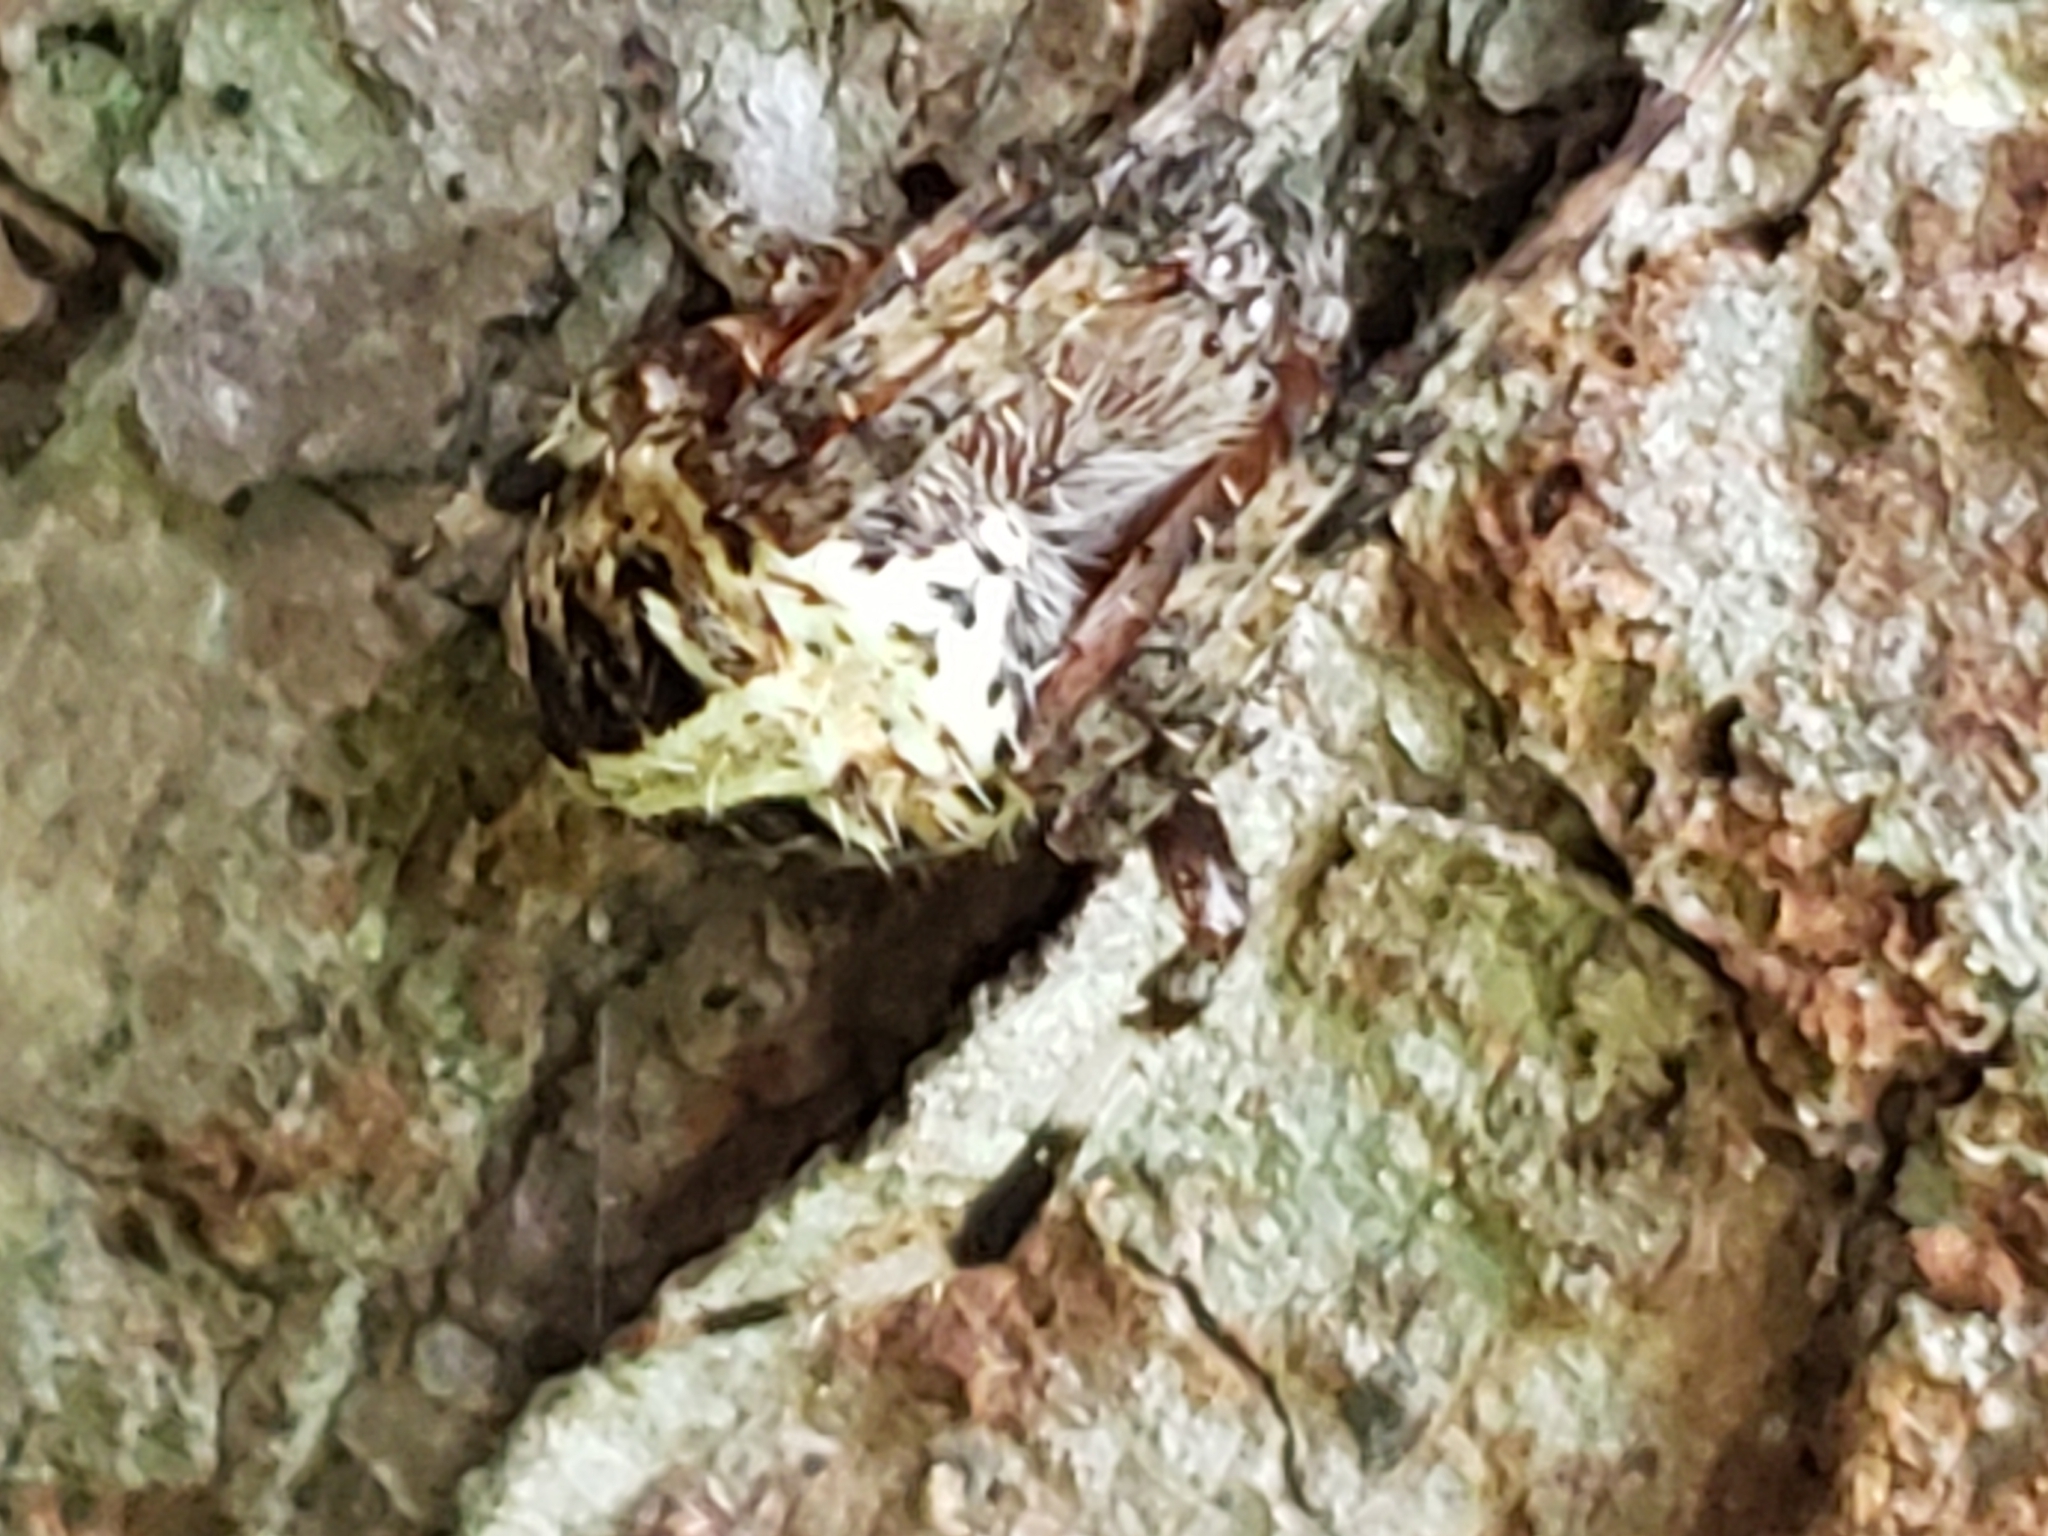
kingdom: Animalia
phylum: Arthropoda
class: Arachnida
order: Araneae
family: Araneidae
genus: Neoscona
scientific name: Neoscona domiciliorum
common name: Red-femured spotted orbweaver
